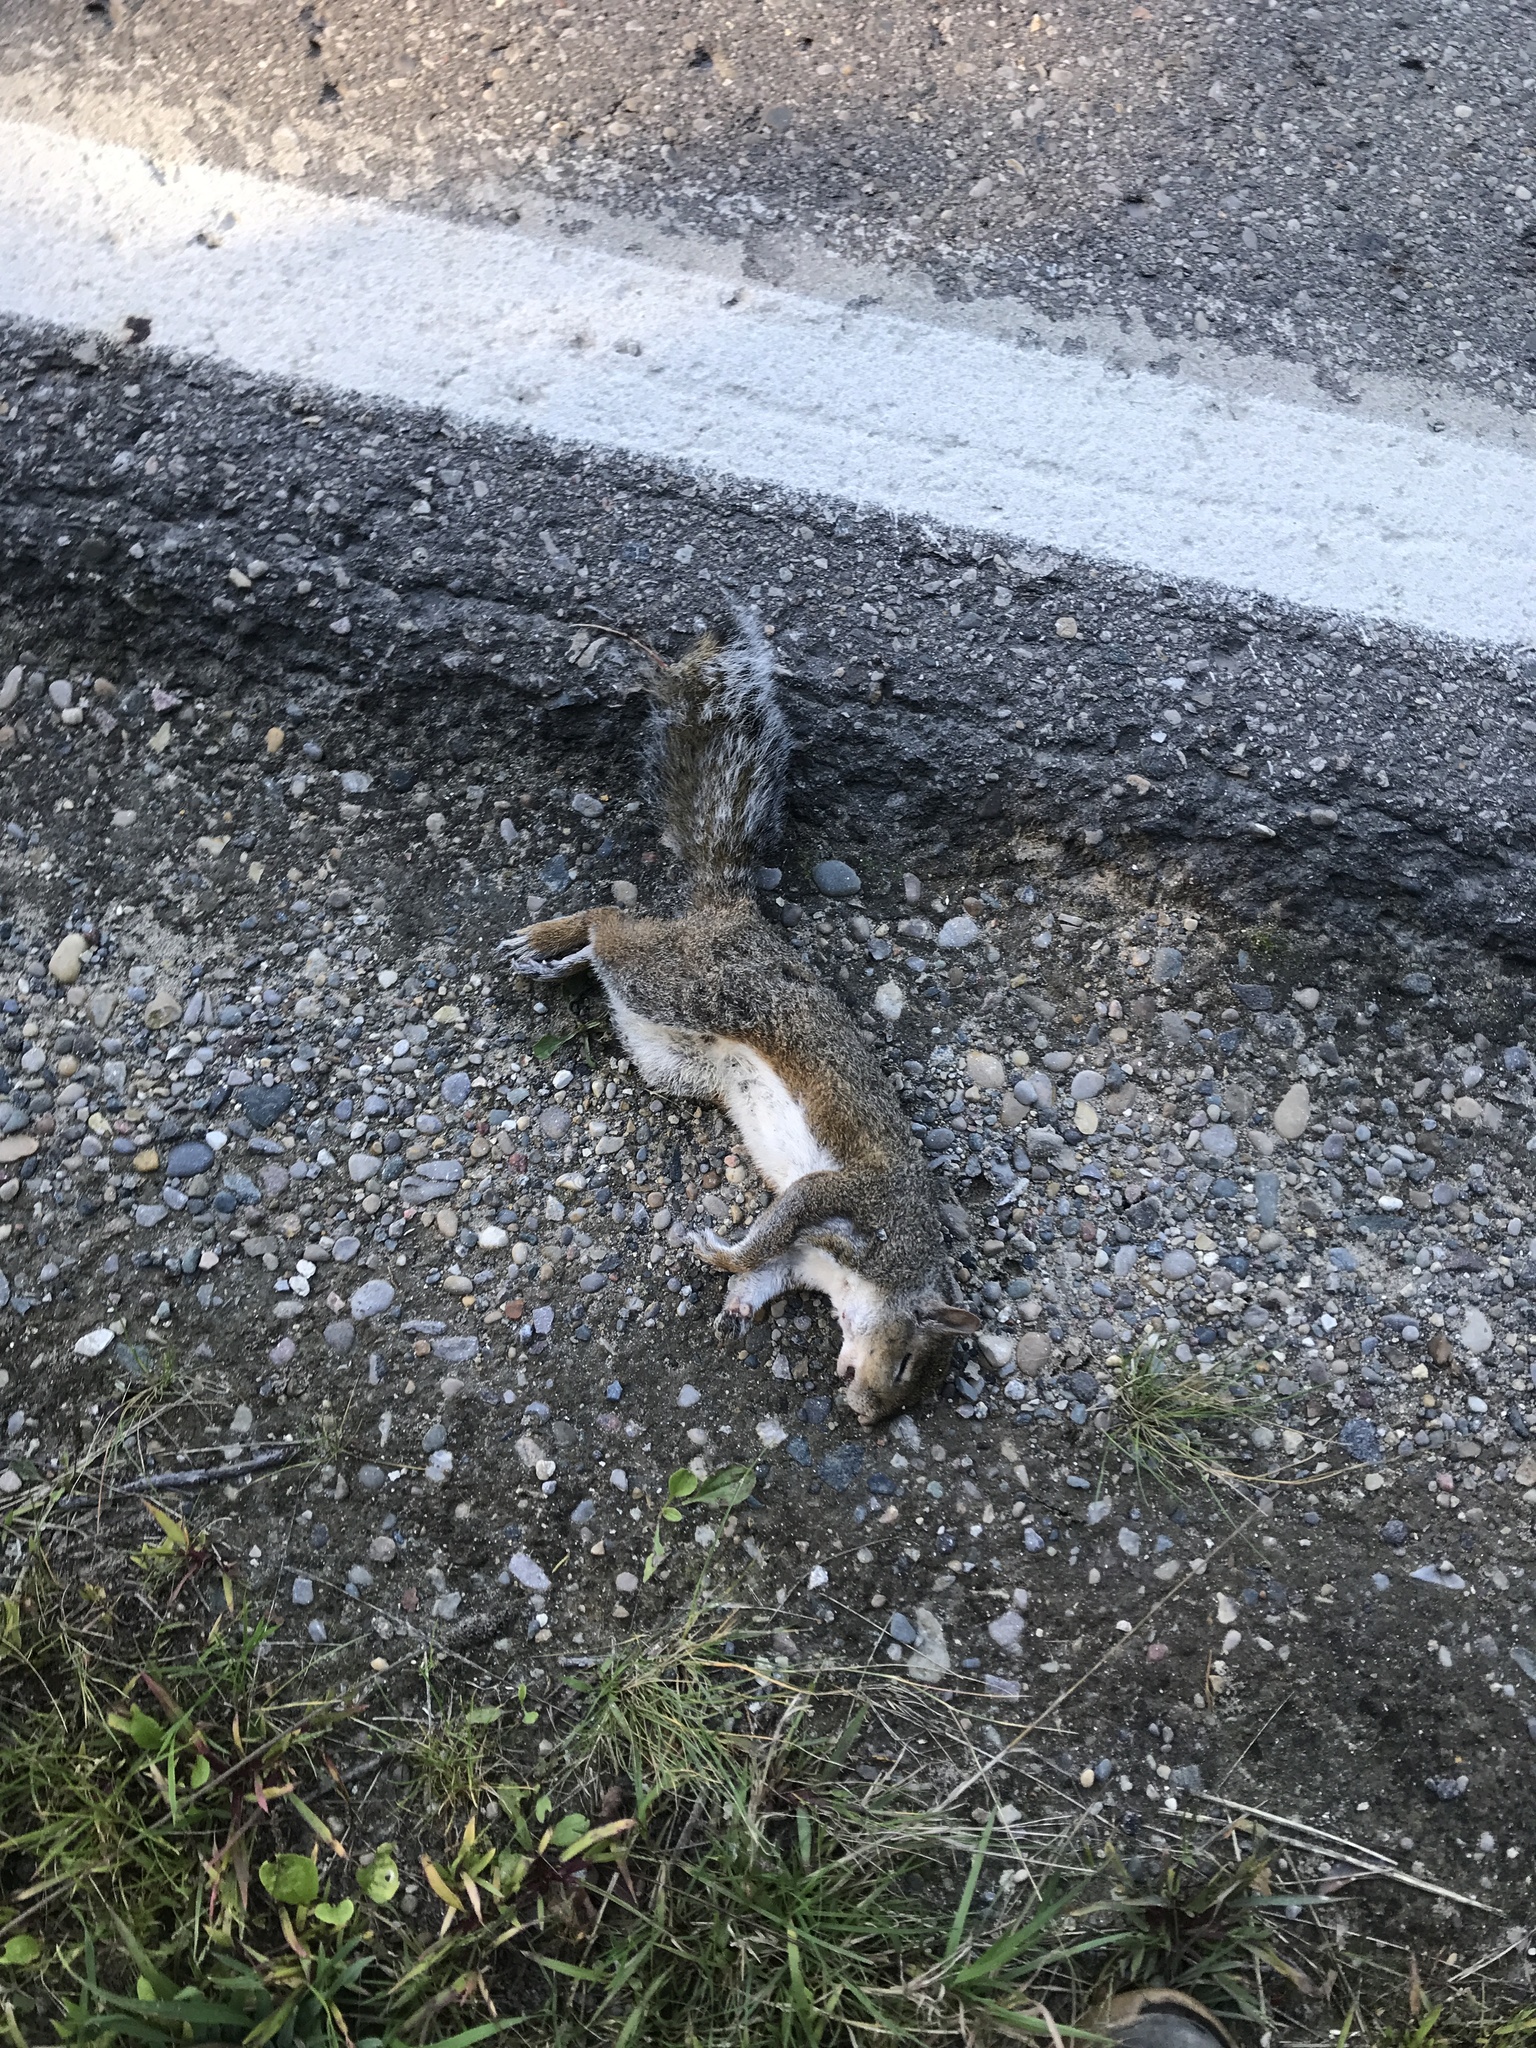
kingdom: Animalia
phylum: Chordata
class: Mammalia
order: Rodentia
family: Sciuridae
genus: Sciurus
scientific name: Sciurus carolinensis
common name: Eastern gray squirrel
